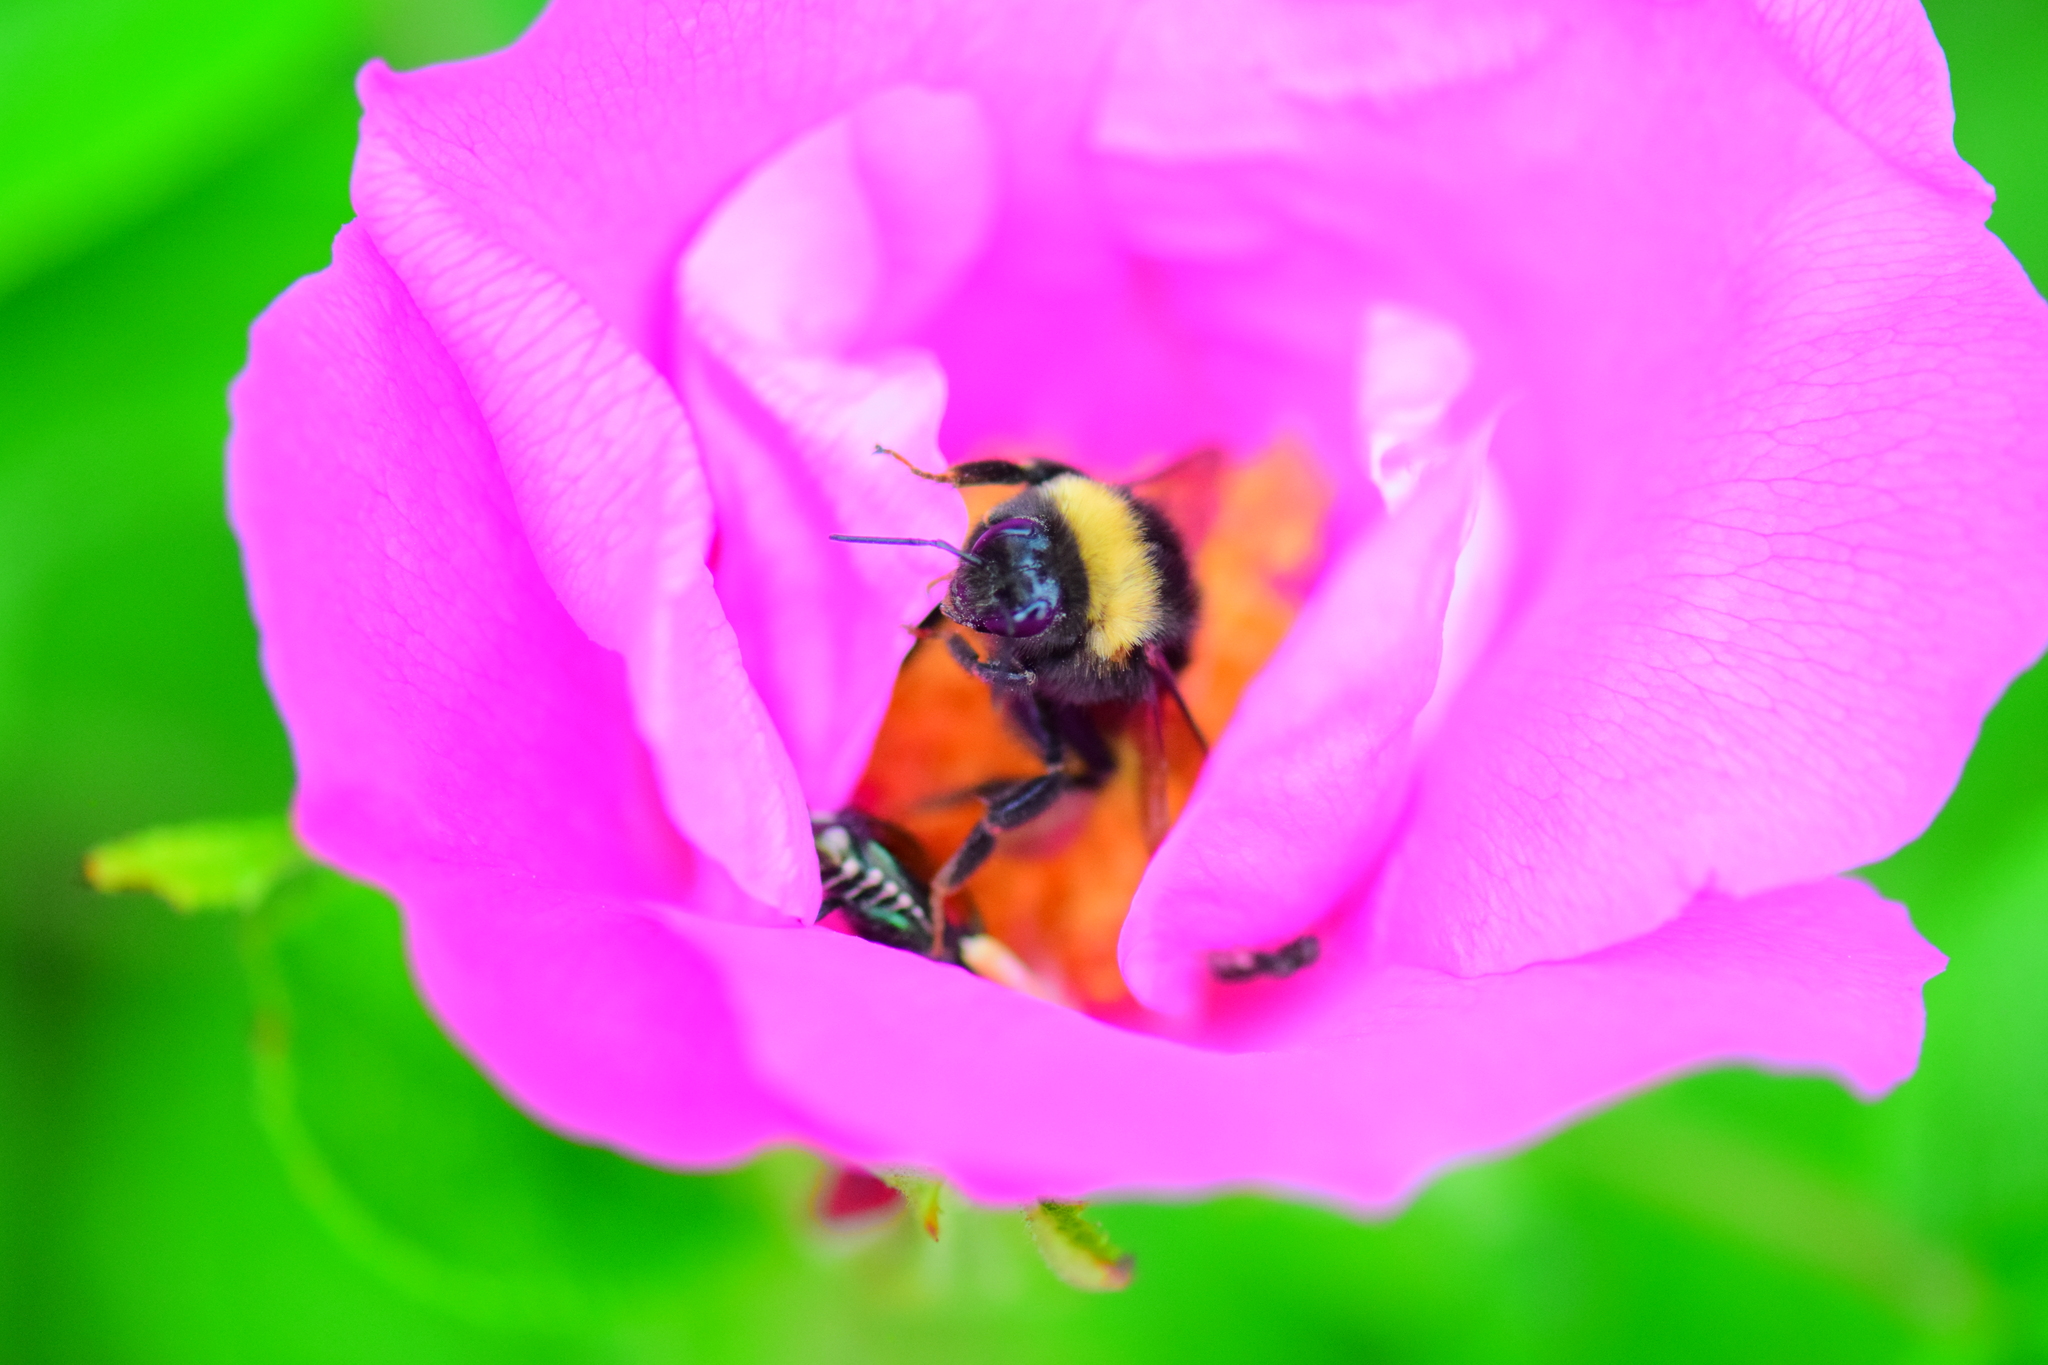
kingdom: Animalia
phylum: Arthropoda
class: Insecta
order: Hymenoptera
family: Apidae
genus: Bombus
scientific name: Bombus terricola
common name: Yellow-banded bumble bee
